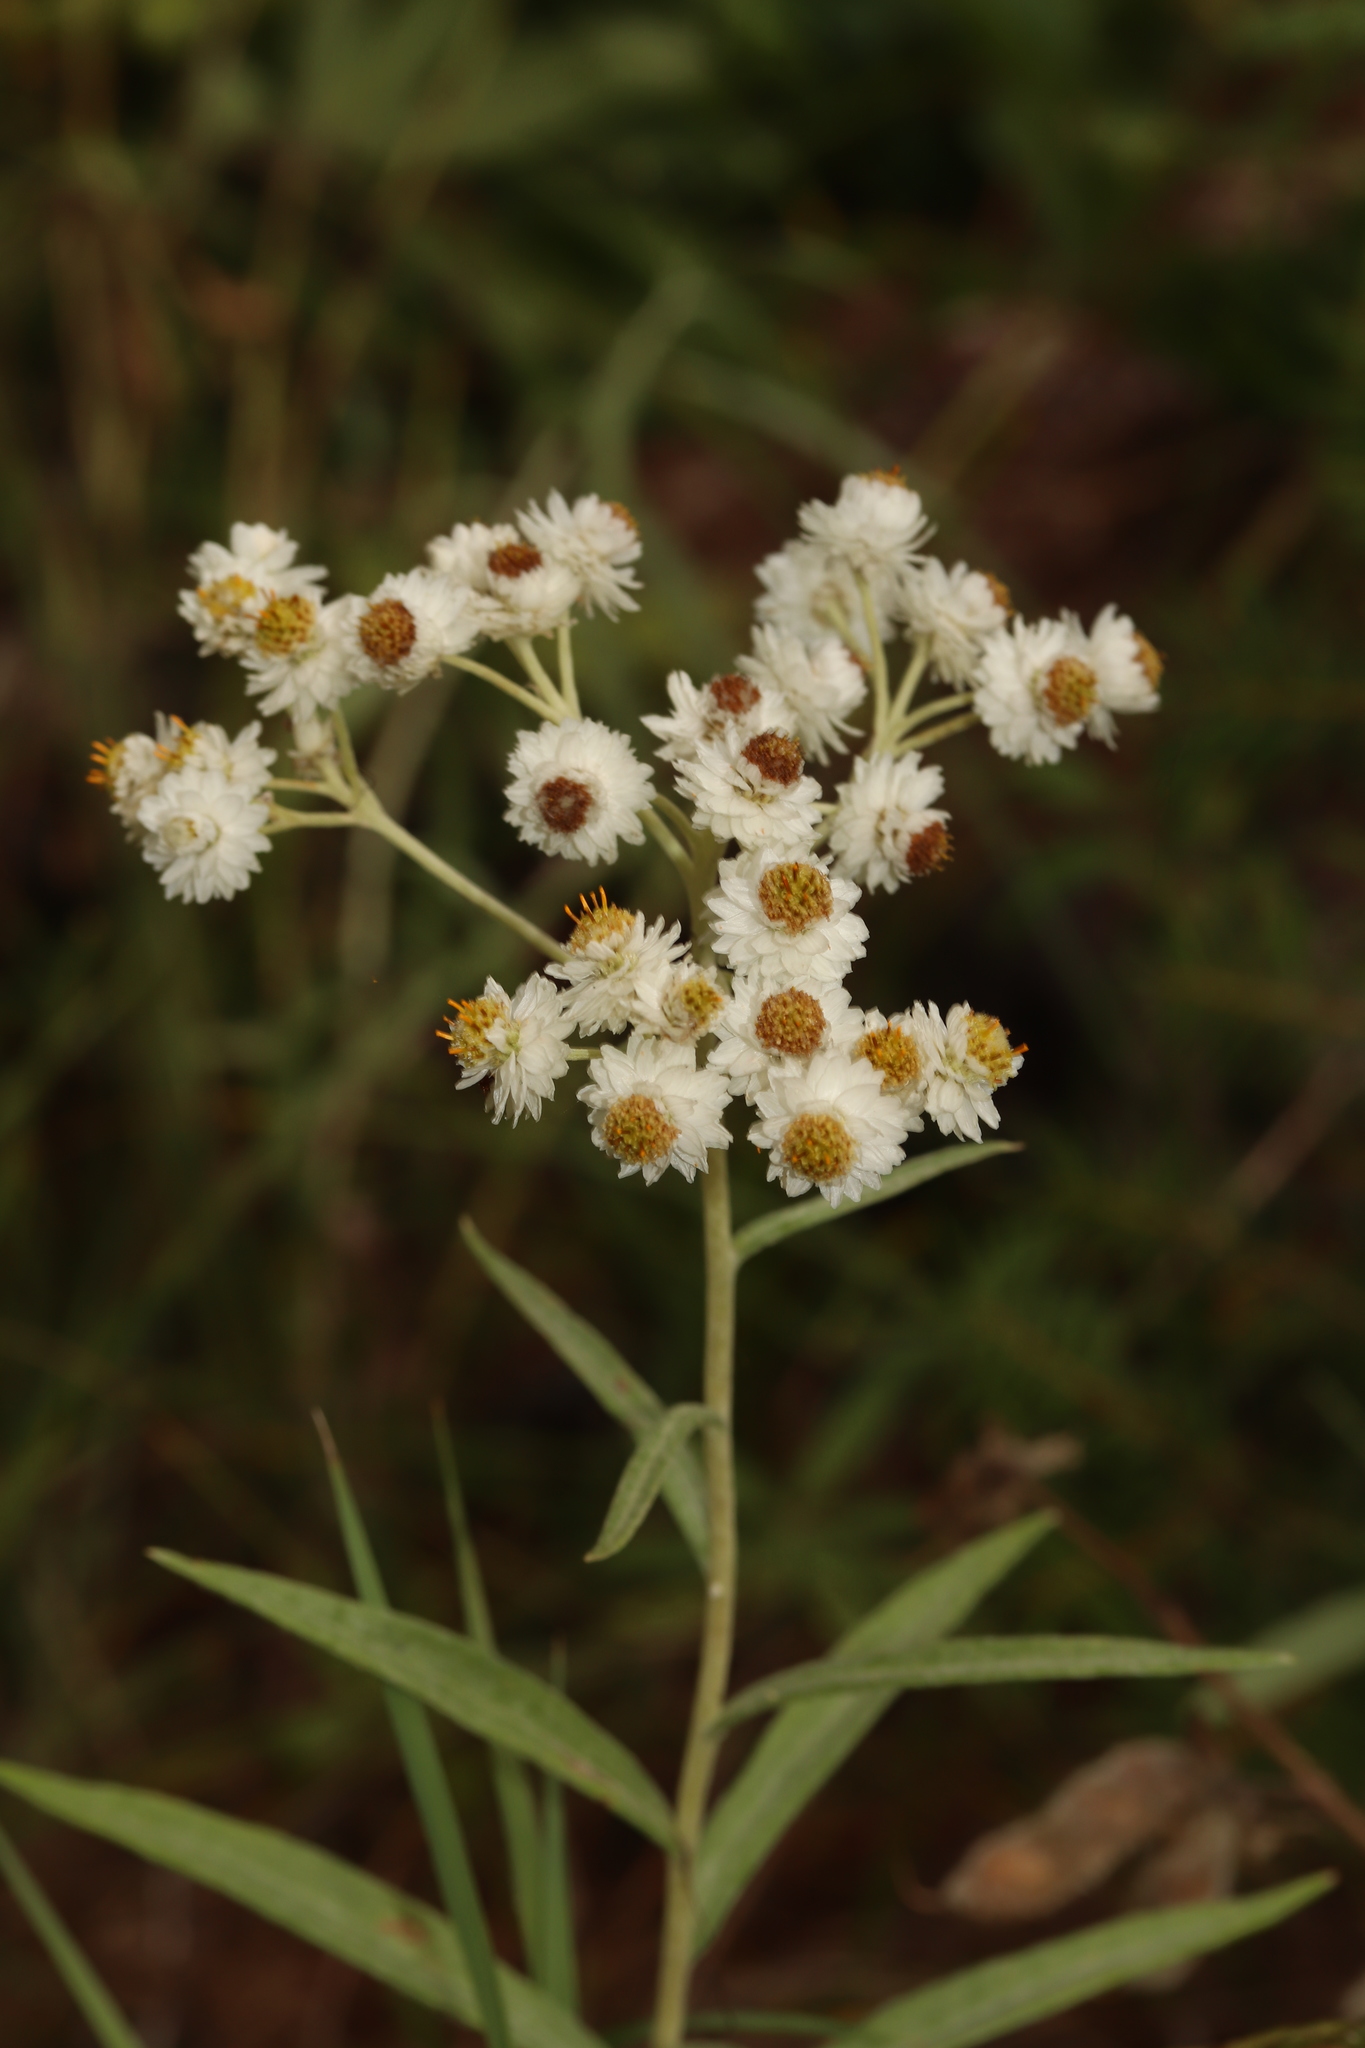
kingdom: Plantae
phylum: Tracheophyta
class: Magnoliopsida
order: Asterales
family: Asteraceae
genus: Anaphalis
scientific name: Anaphalis margaritacea
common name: Pearly everlasting
